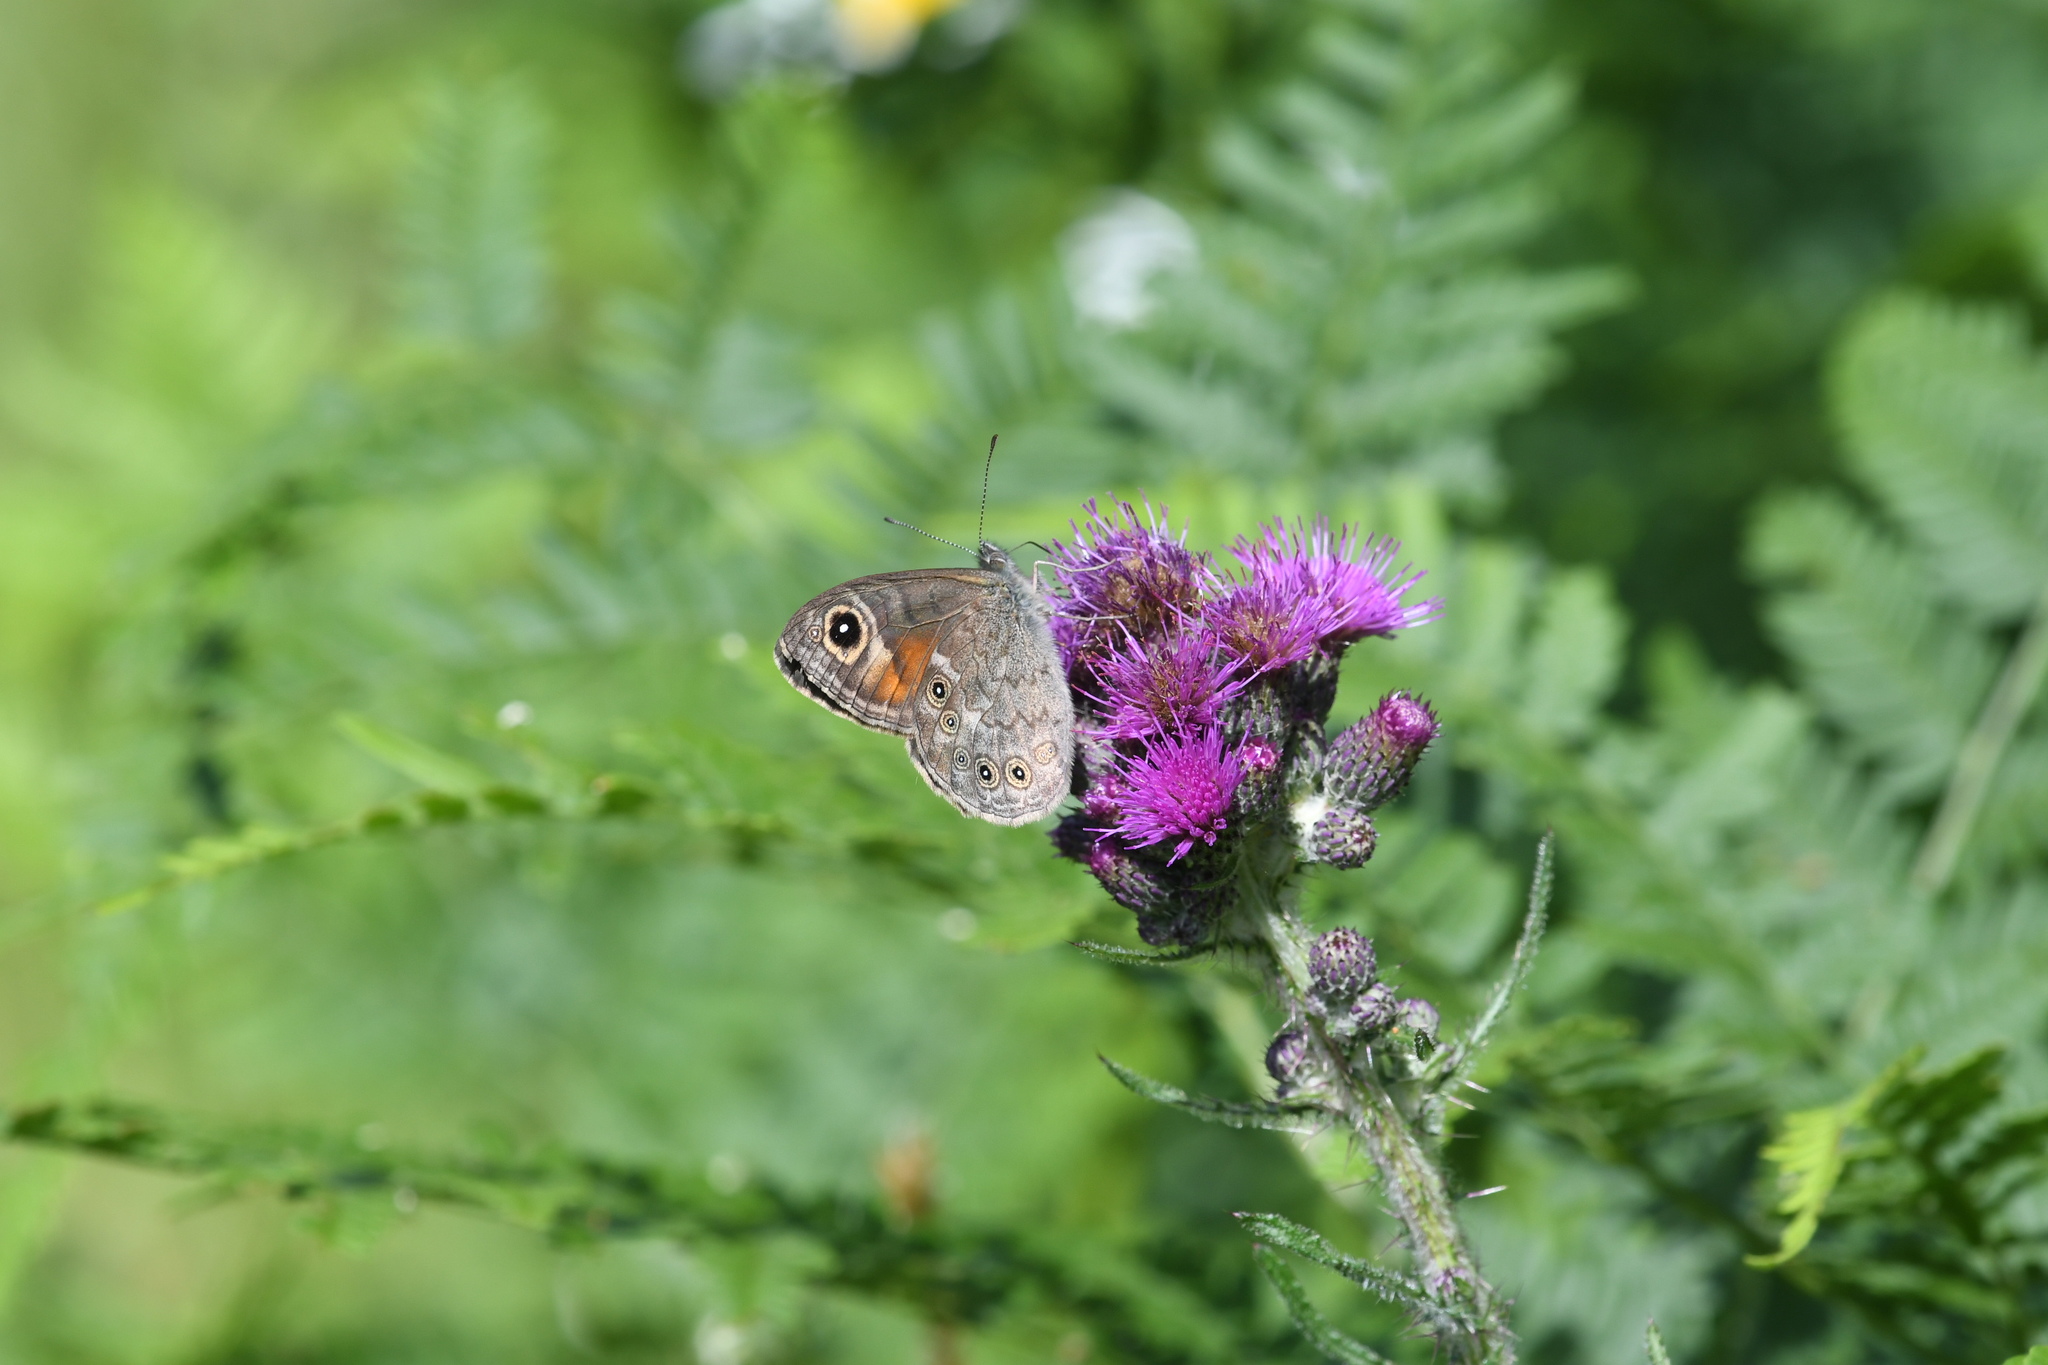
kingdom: Animalia
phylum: Arthropoda
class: Insecta
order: Lepidoptera
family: Nymphalidae
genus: Pararge
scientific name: Pararge Lasiommata maera
